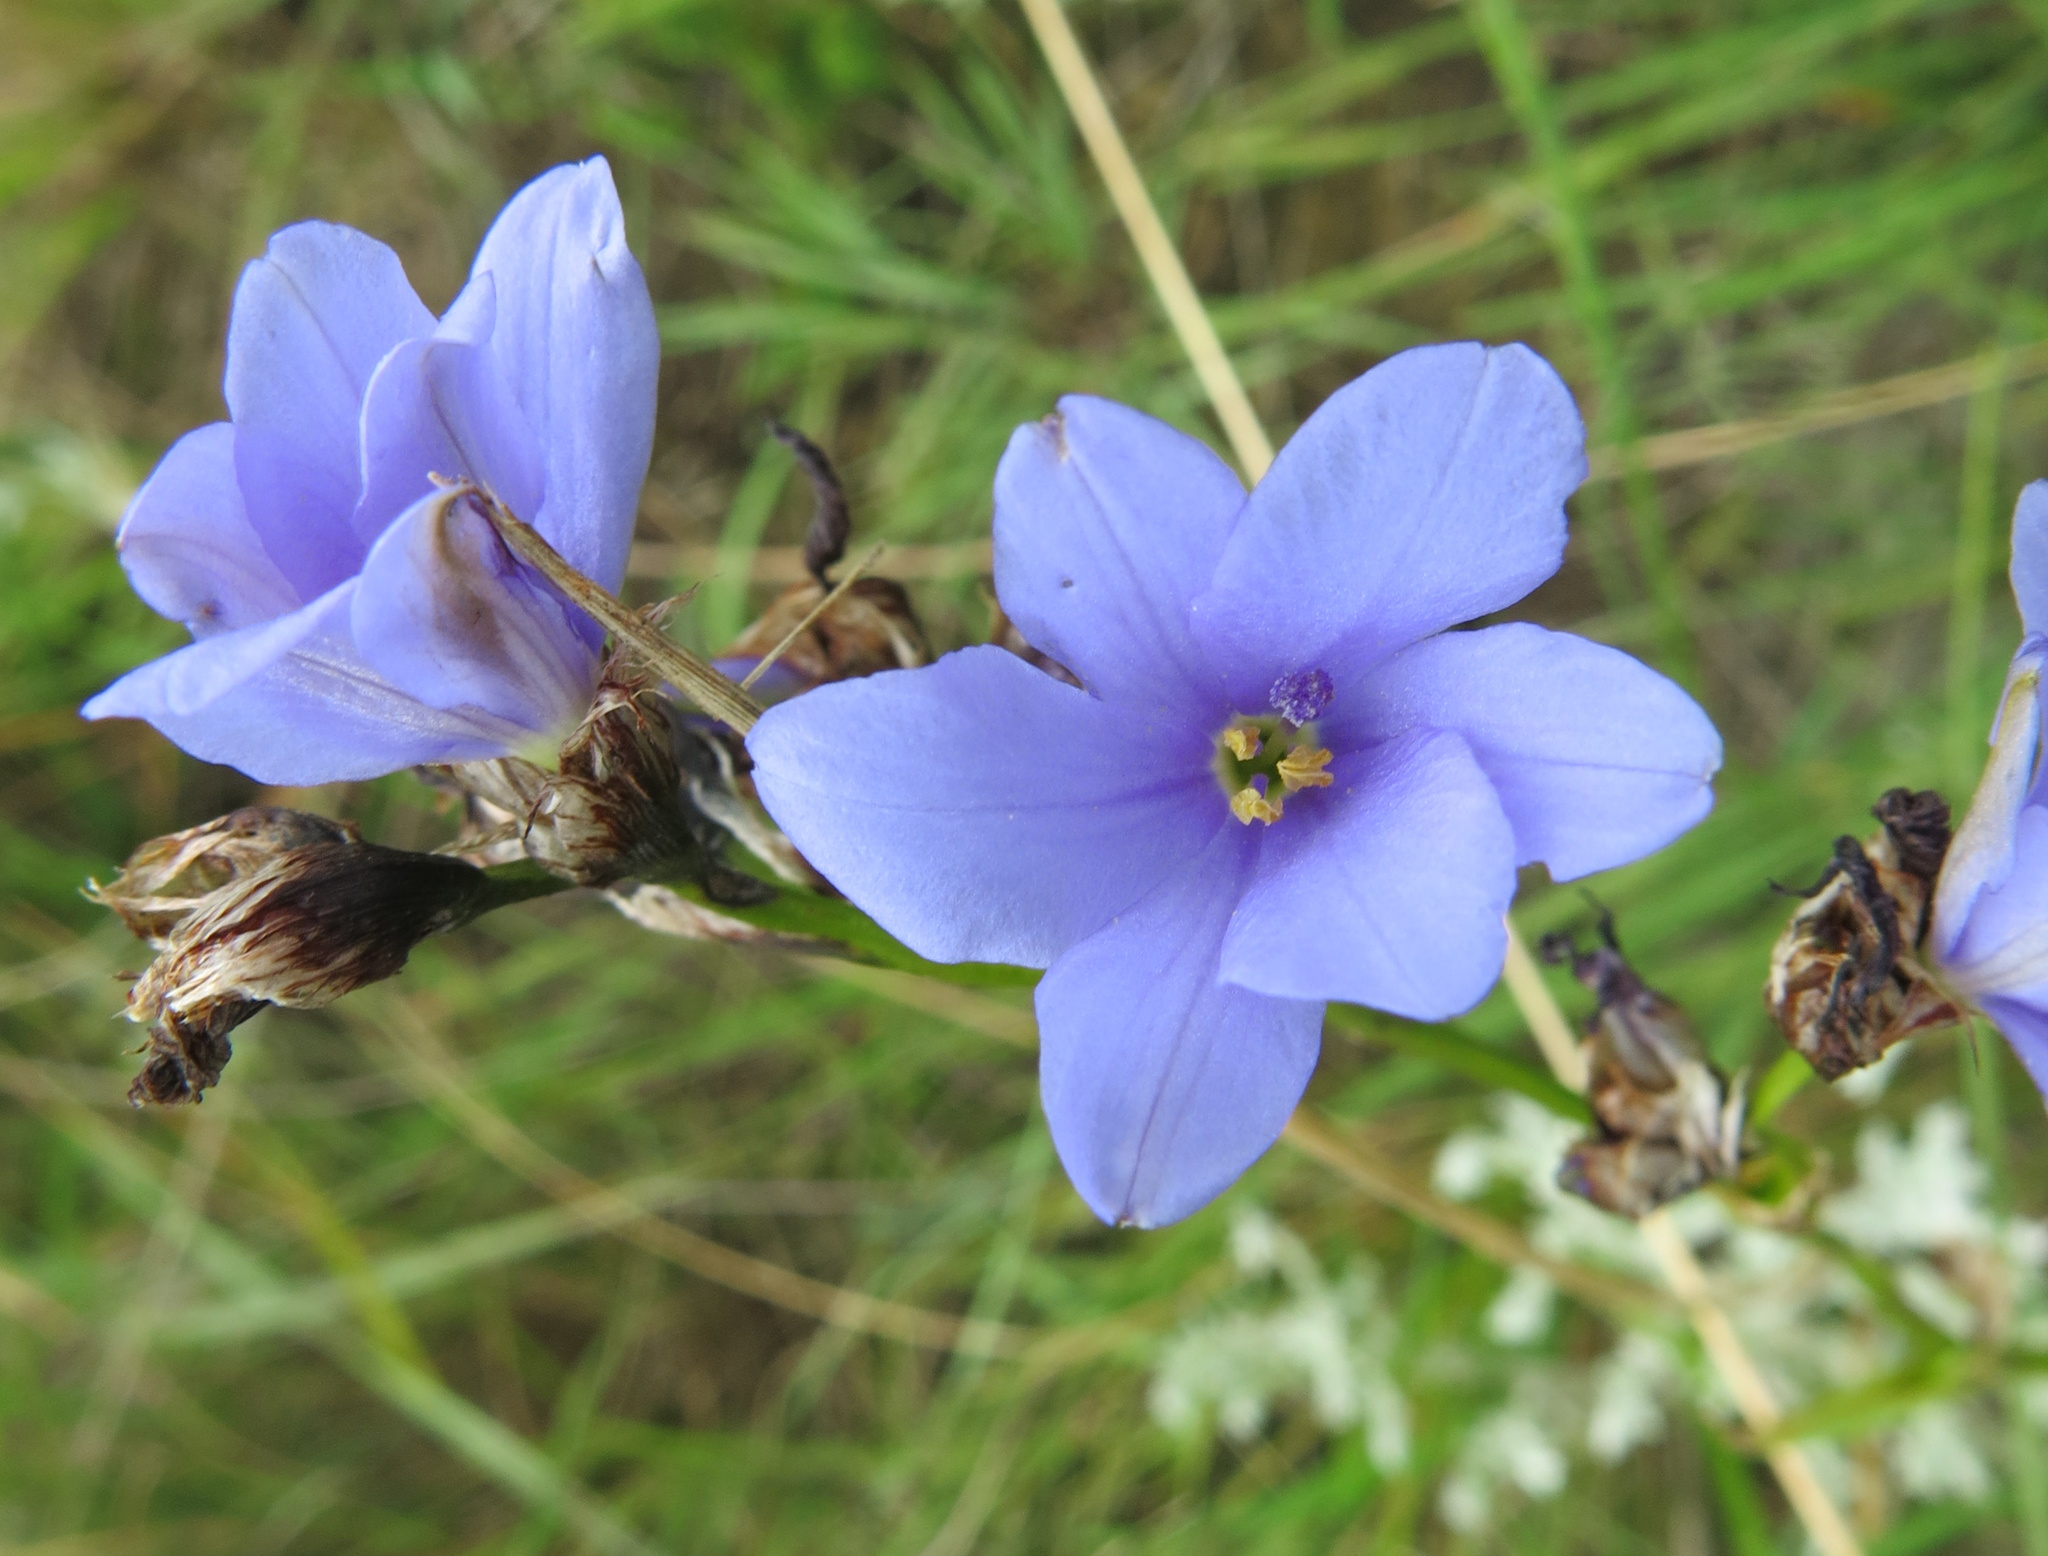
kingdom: Plantae
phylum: Tracheophyta
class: Liliopsida
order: Asparagales
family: Iridaceae
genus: Aristea
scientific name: Aristea torulosa
